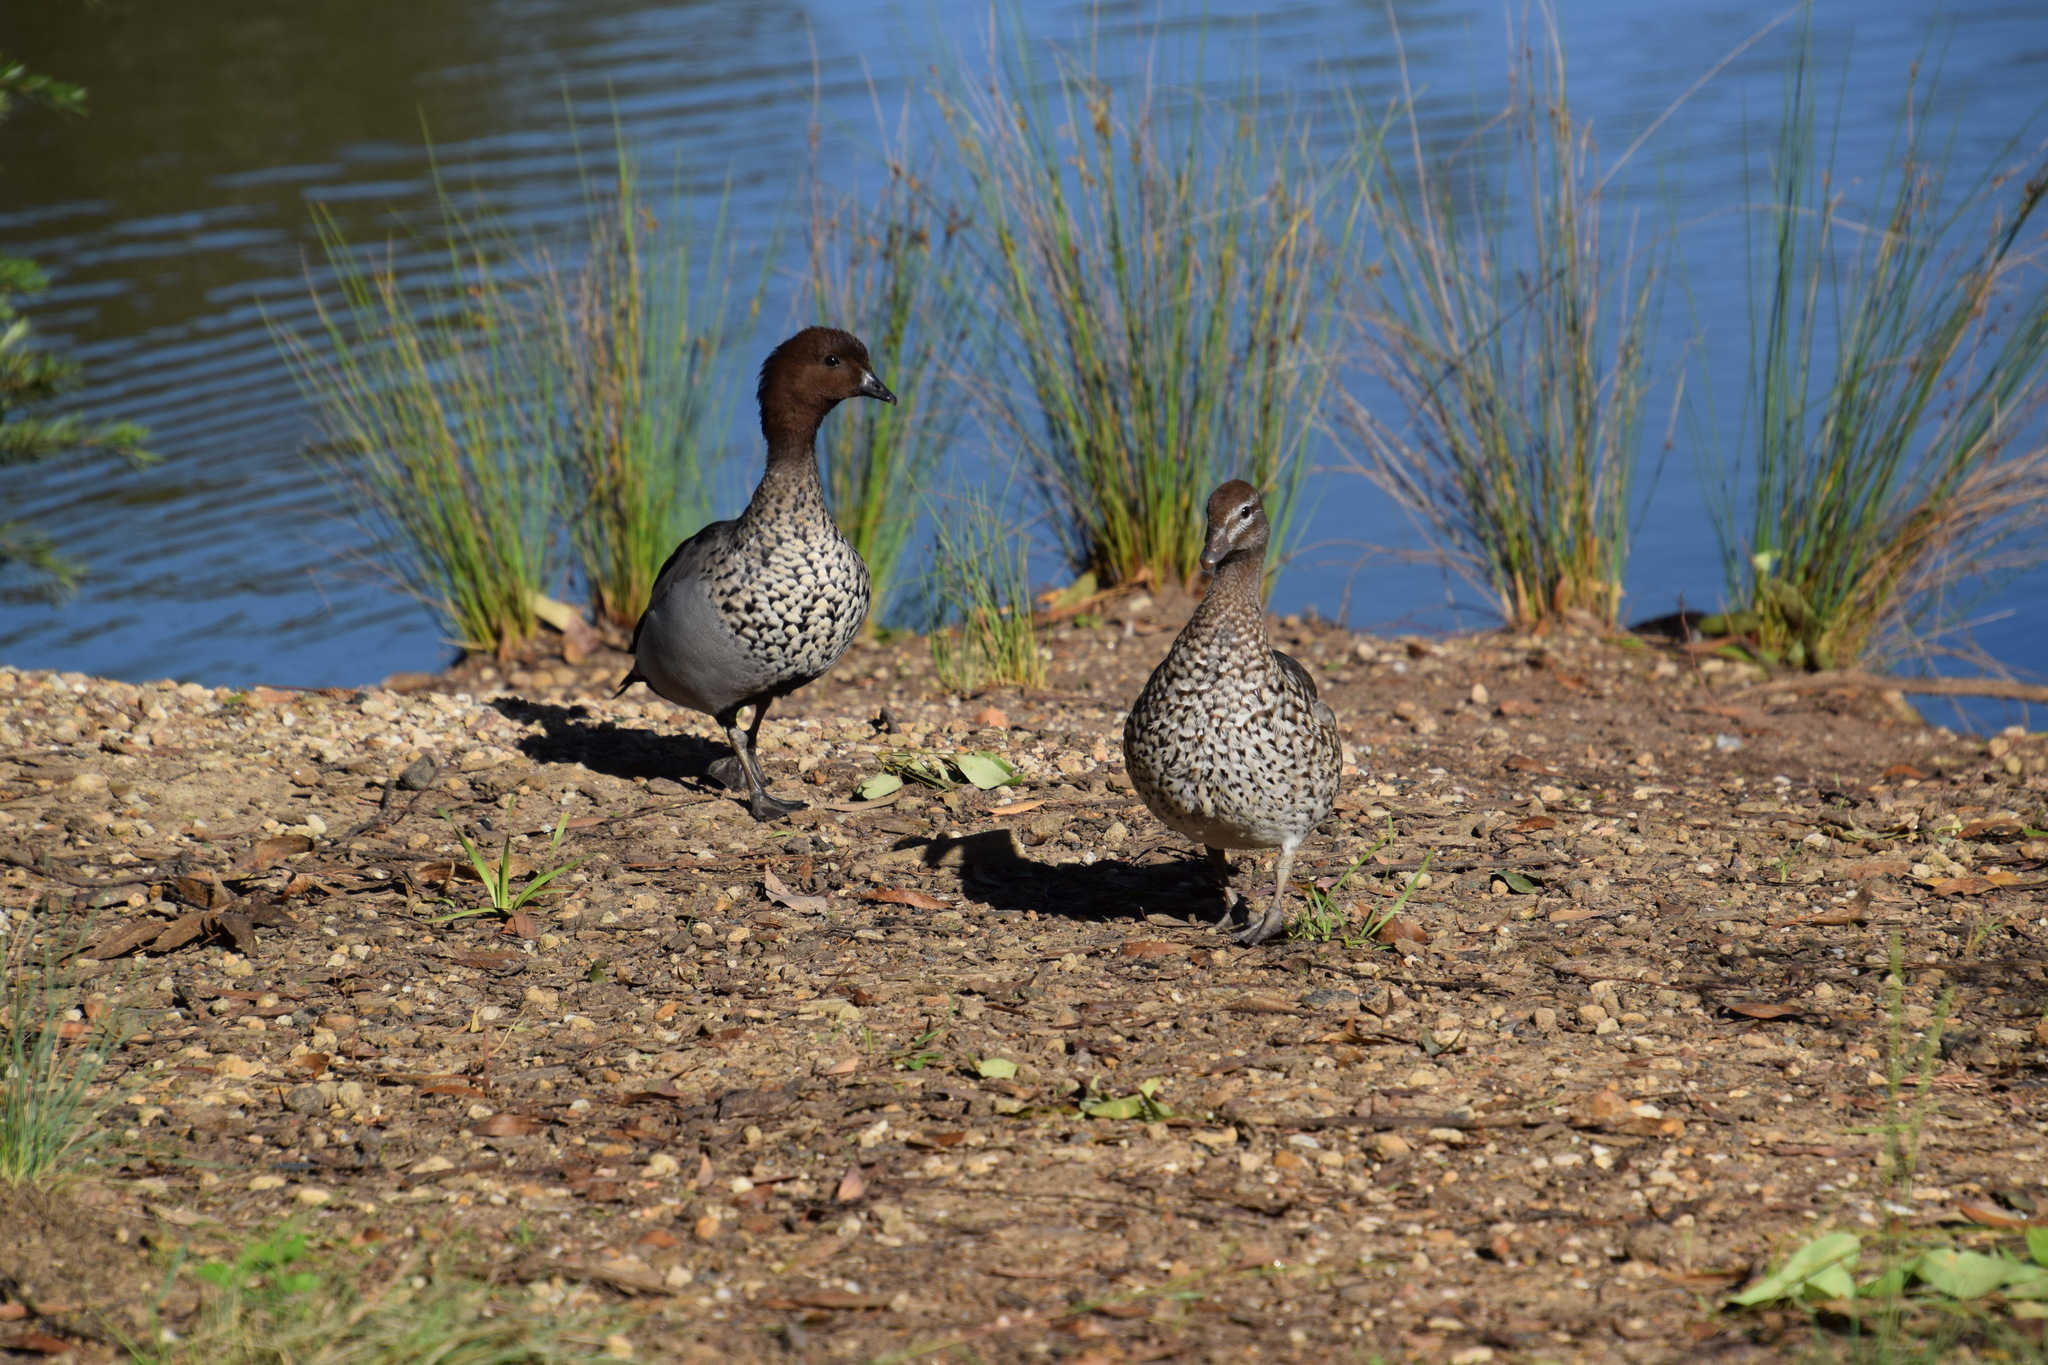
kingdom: Animalia
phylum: Chordata
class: Aves
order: Anseriformes
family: Anatidae
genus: Chenonetta
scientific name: Chenonetta jubata
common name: Maned duck
